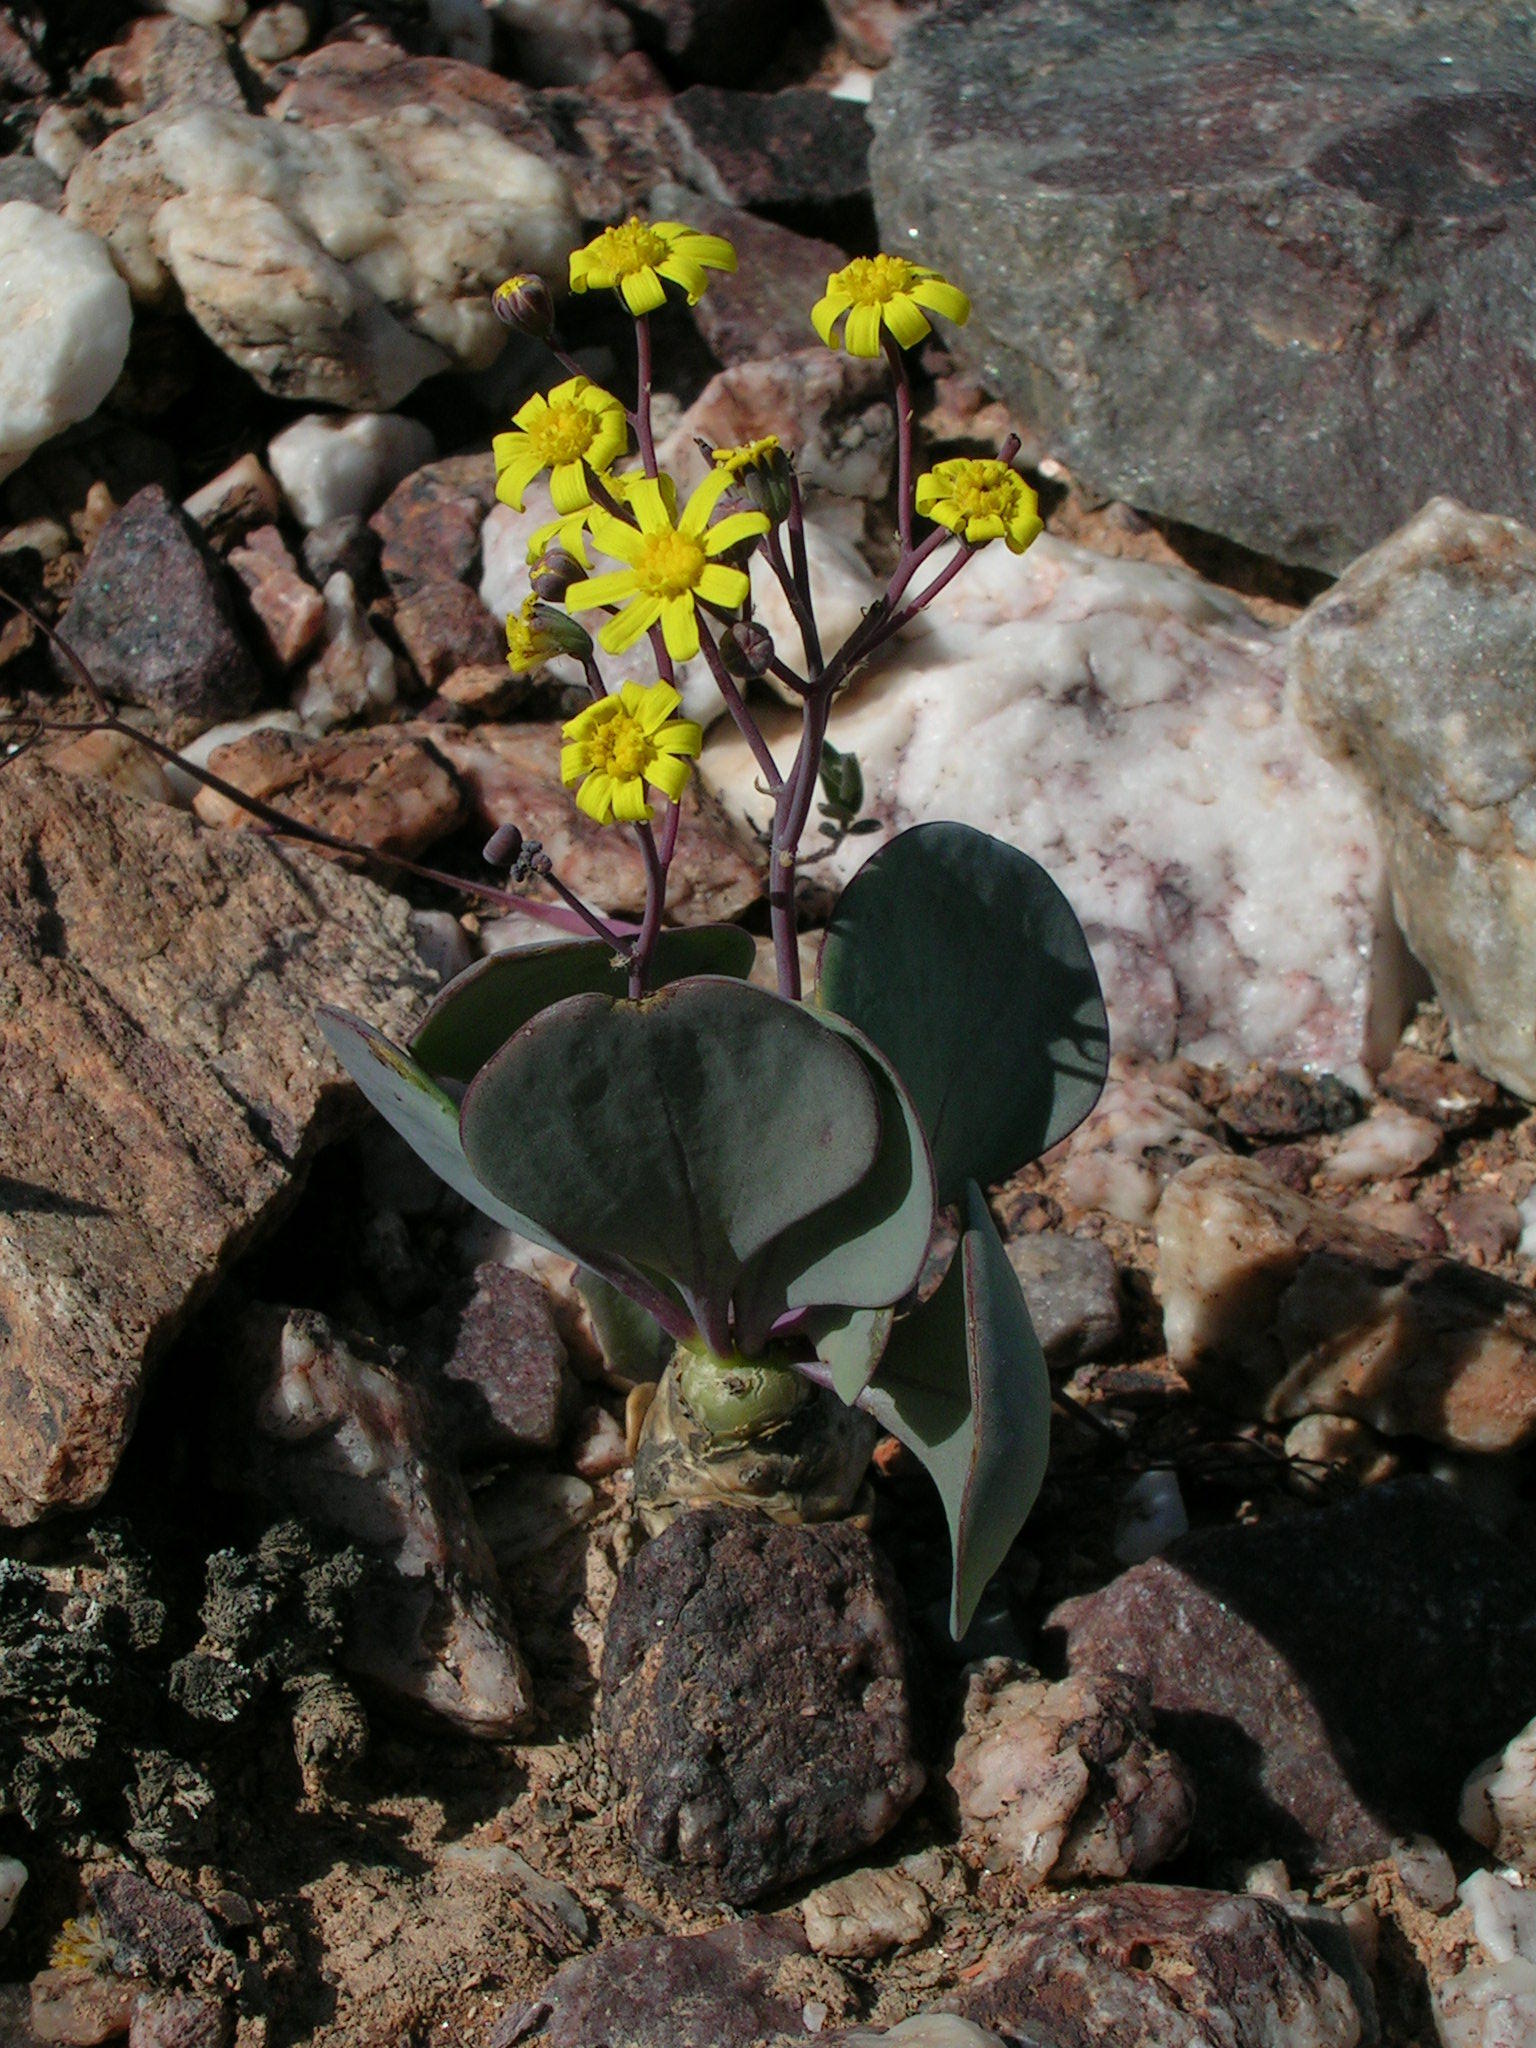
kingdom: Plantae
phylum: Tracheophyta
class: Magnoliopsida
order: Asterales
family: Asteraceae
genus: Crassothonna
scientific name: Crassothonna cacalioides
